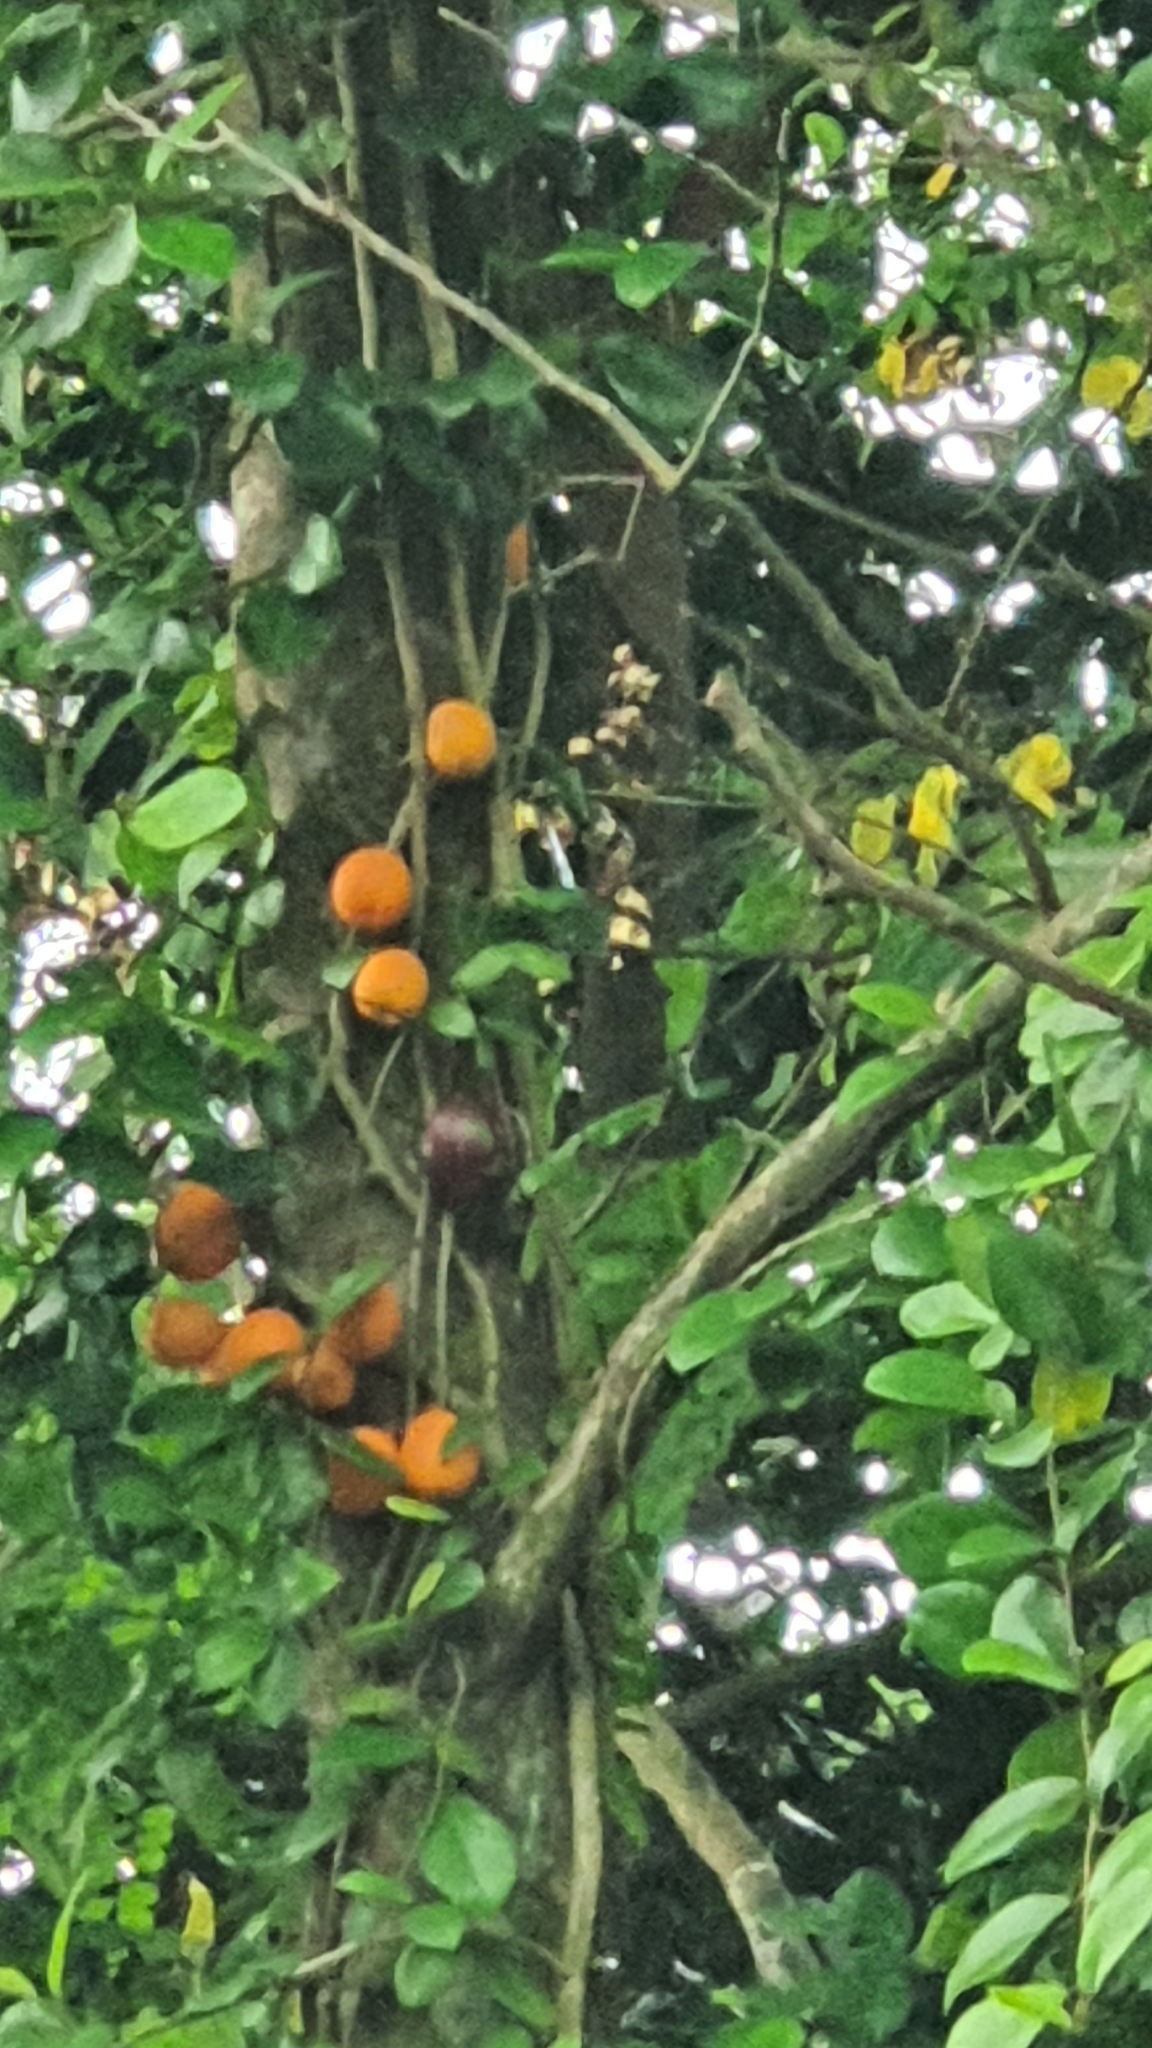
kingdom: Plantae
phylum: Tracheophyta
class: Magnoliopsida
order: Rosales
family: Moraceae
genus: Ficus
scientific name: Ficus punctata
